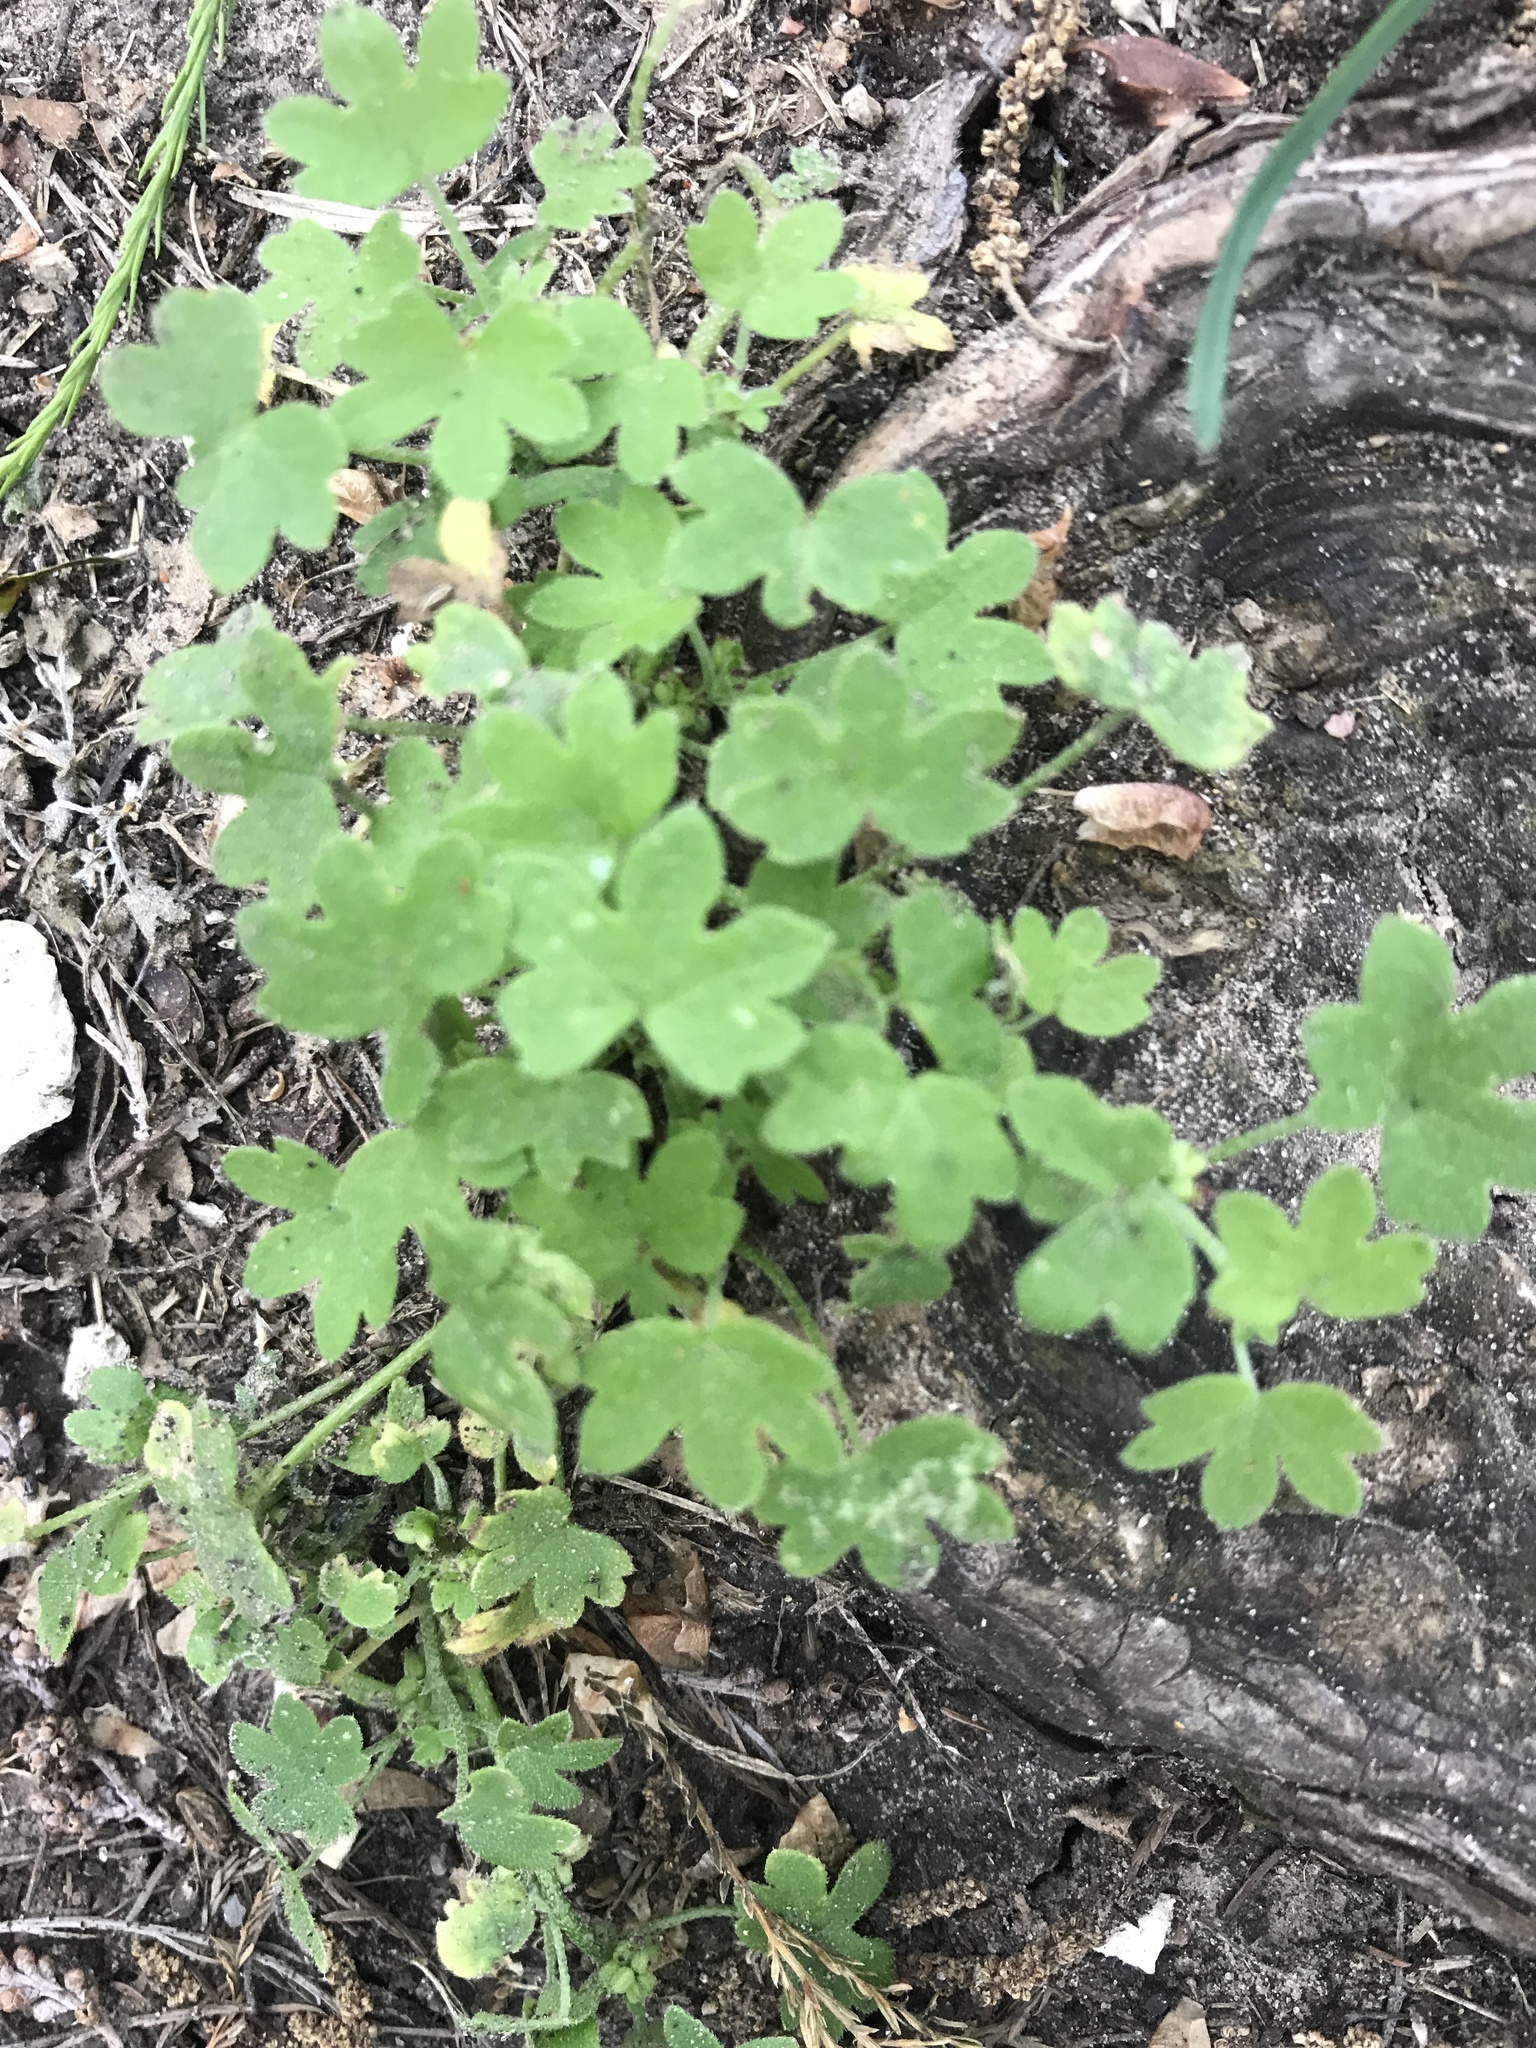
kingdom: Plantae
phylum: Tracheophyta
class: Magnoliopsida
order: Apiales
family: Apiaceae
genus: Bowlesia
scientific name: Bowlesia incana
